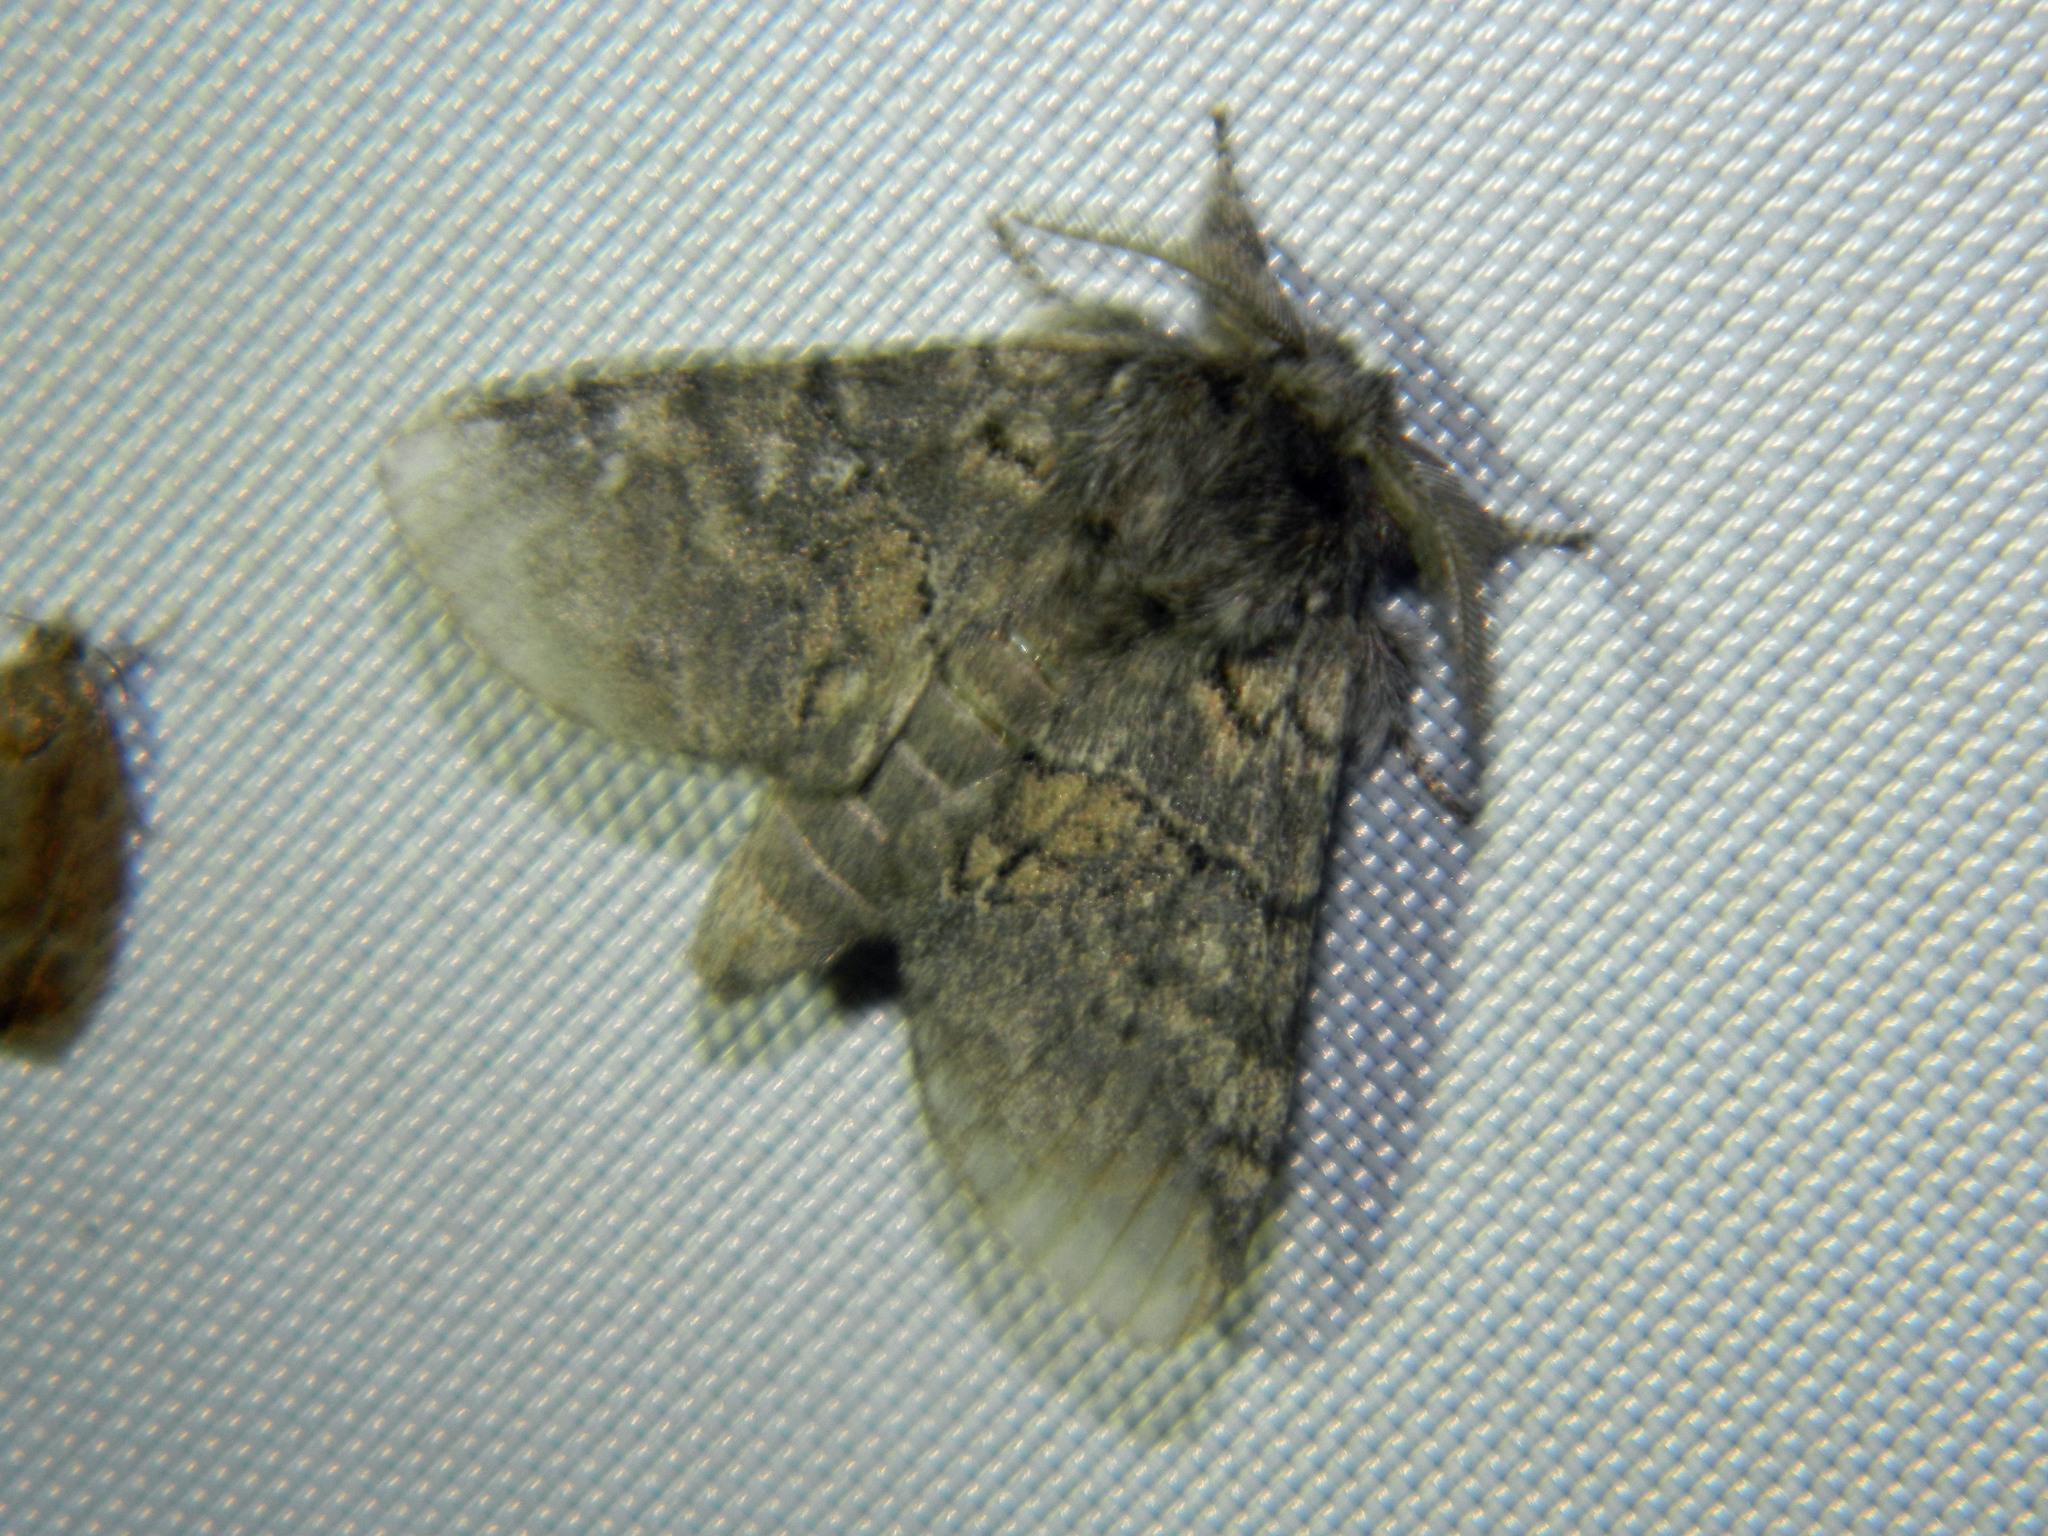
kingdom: Animalia
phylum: Arthropoda
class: Insecta
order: Lepidoptera
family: Notodontidae
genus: Gluphisia
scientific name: Gluphisia septentrionis
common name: Common gluphisia
